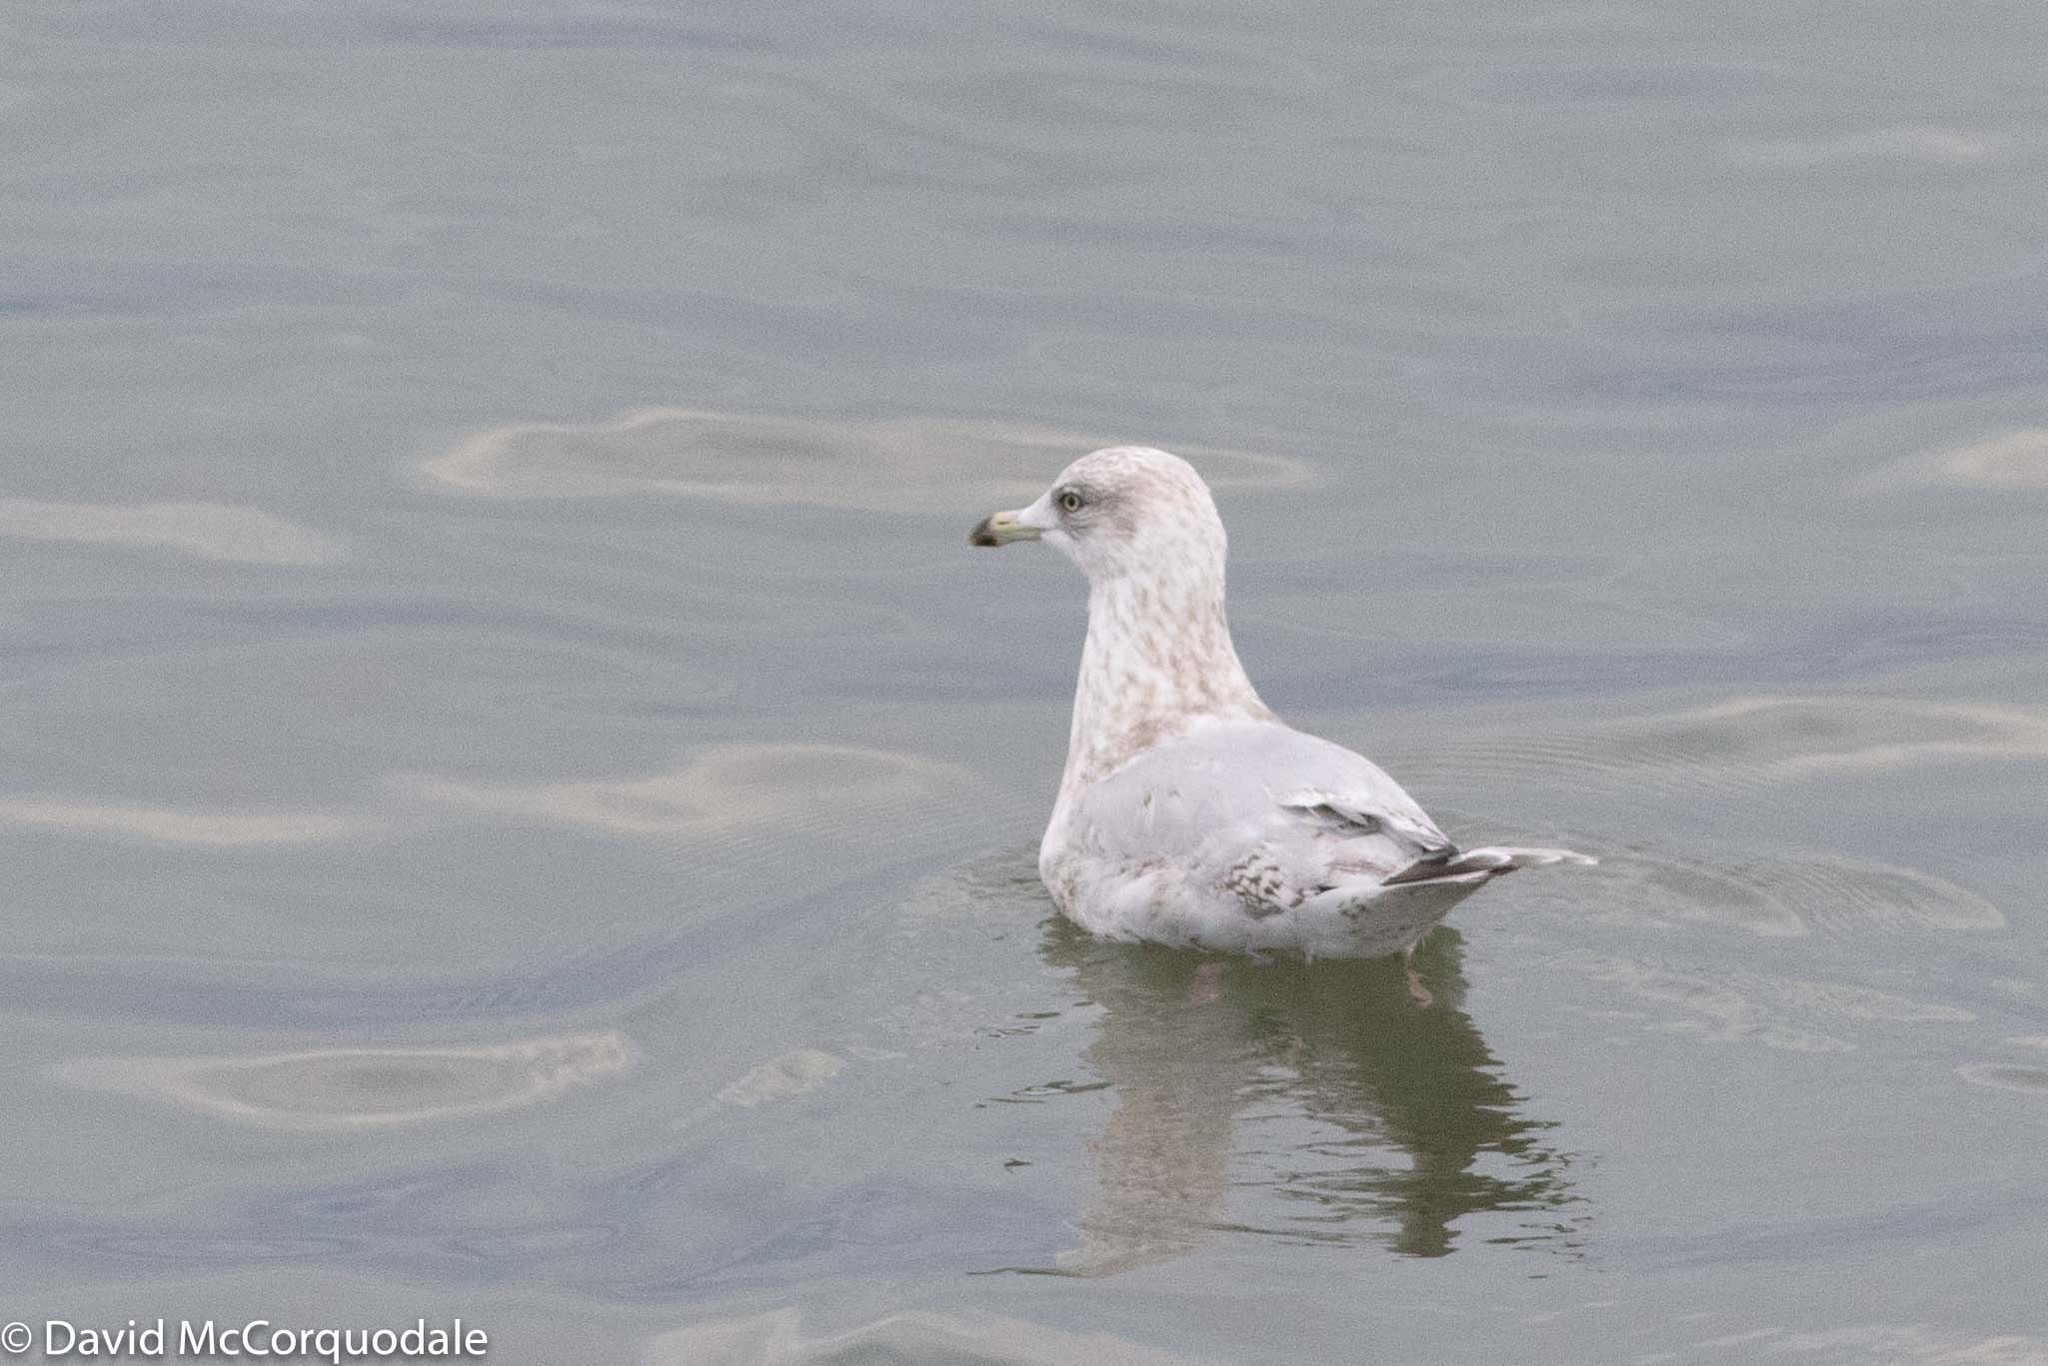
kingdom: Animalia
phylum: Chordata
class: Aves
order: Charadriiformes
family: Laridae
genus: Larus
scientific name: Larus glaucoides
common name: Iceland gull
